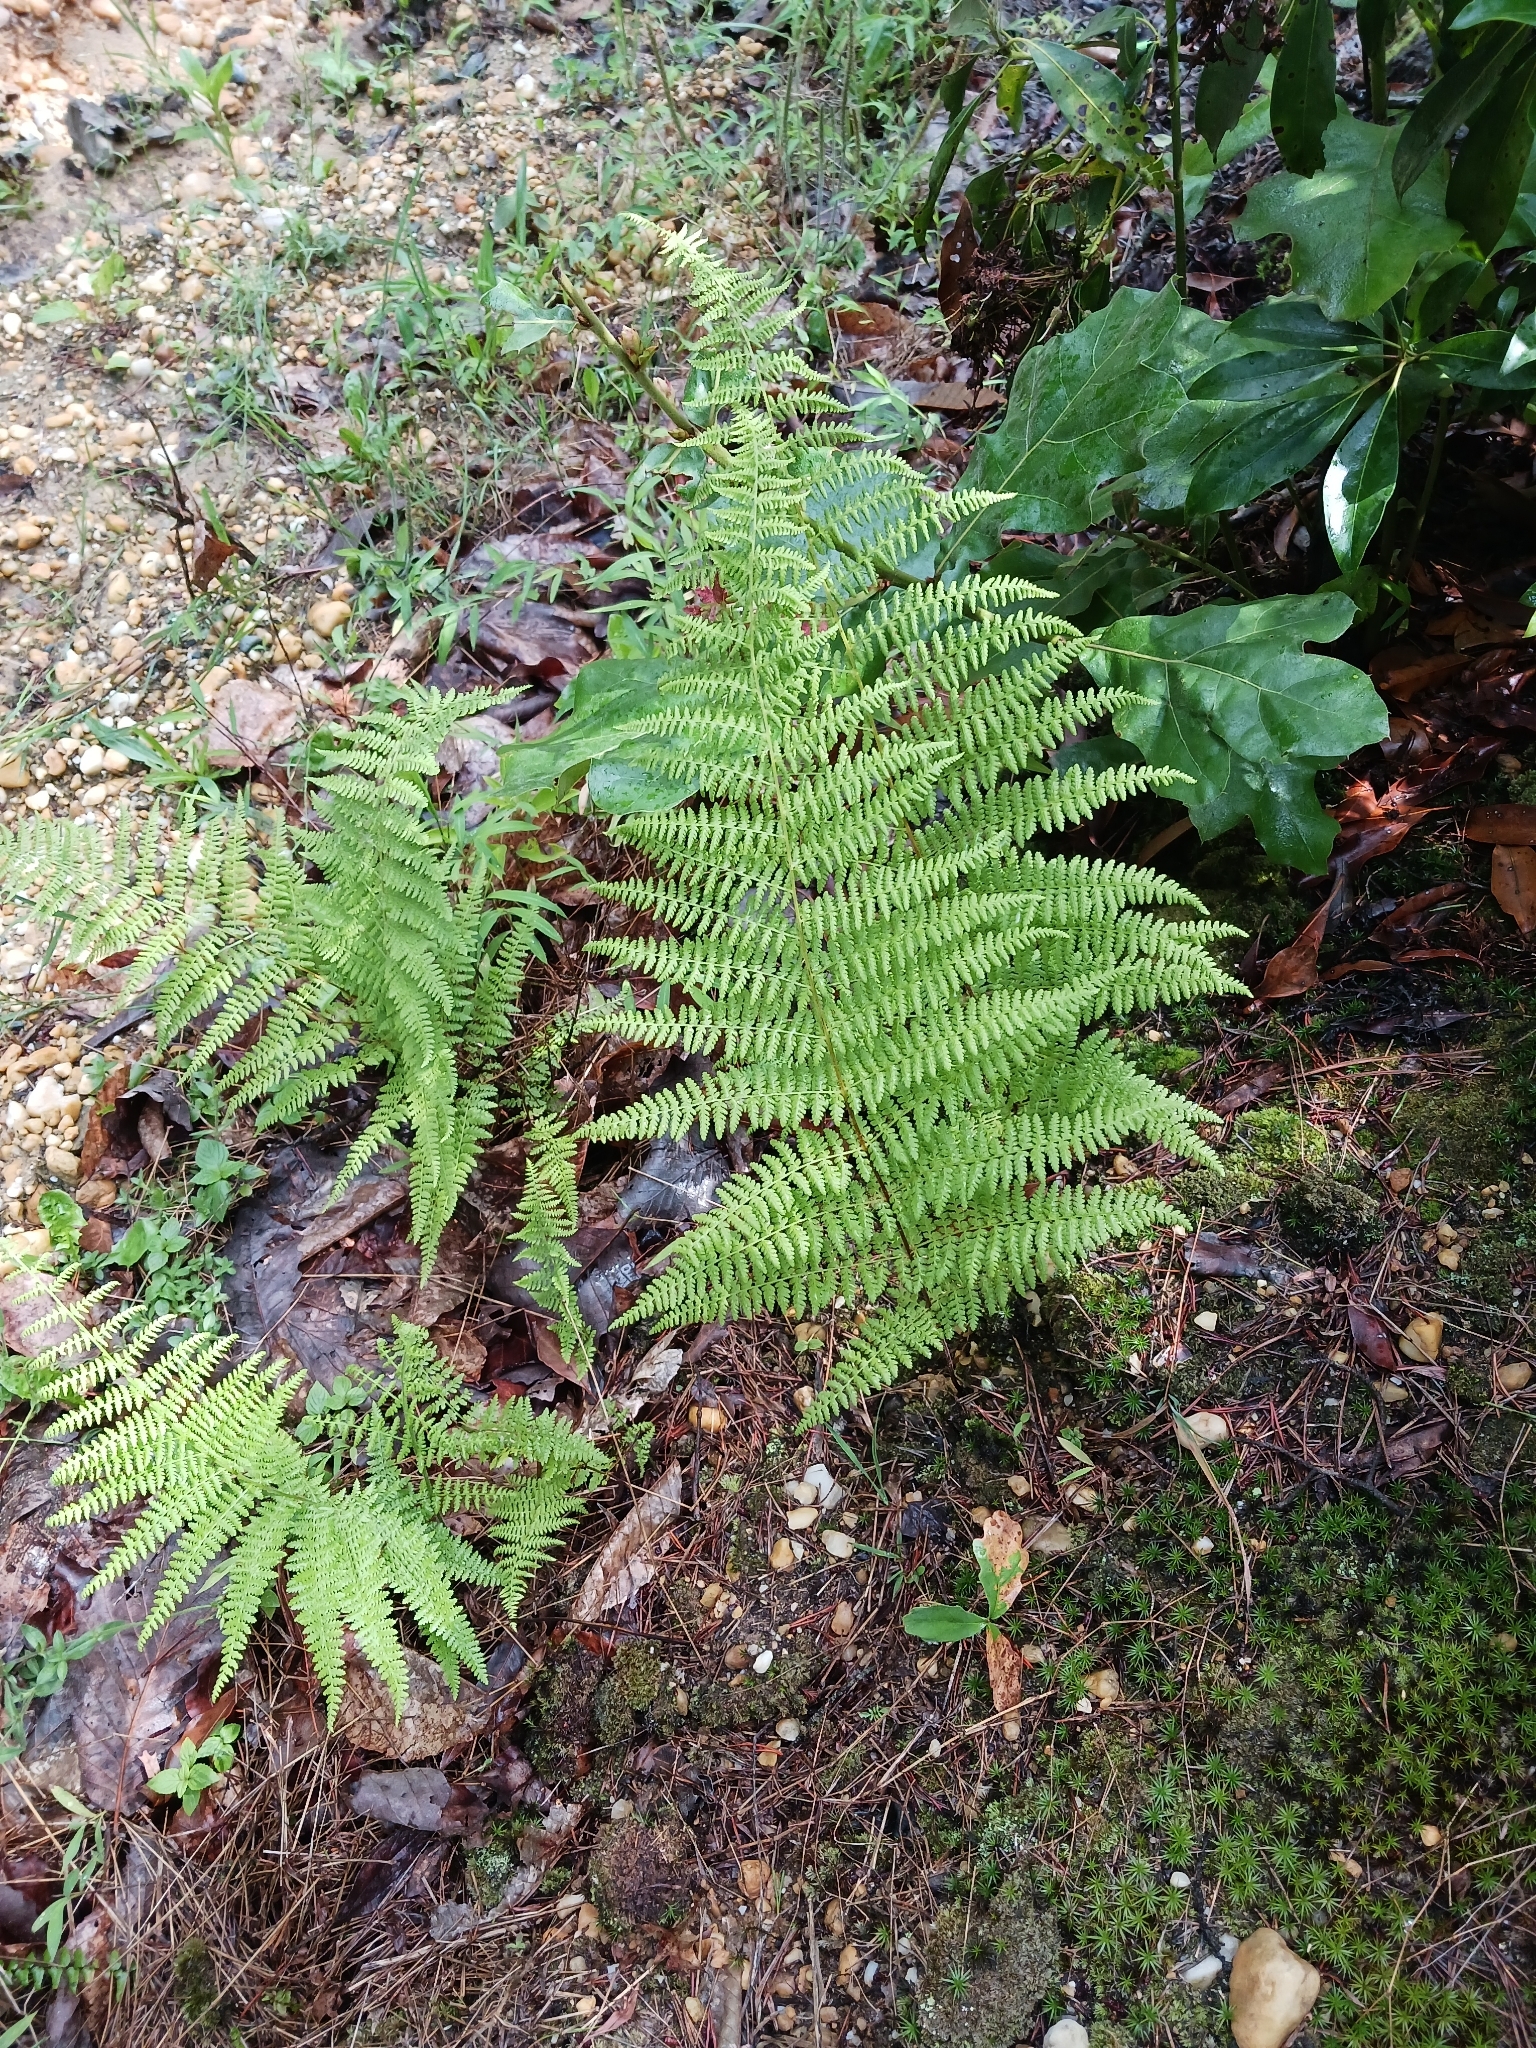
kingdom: Plantae
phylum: Tracheophyta
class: Polypodiopsida
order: Polypodiales
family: Dennstaedtiaceae
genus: Sitobolium
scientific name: Sitobolium punctilobum
